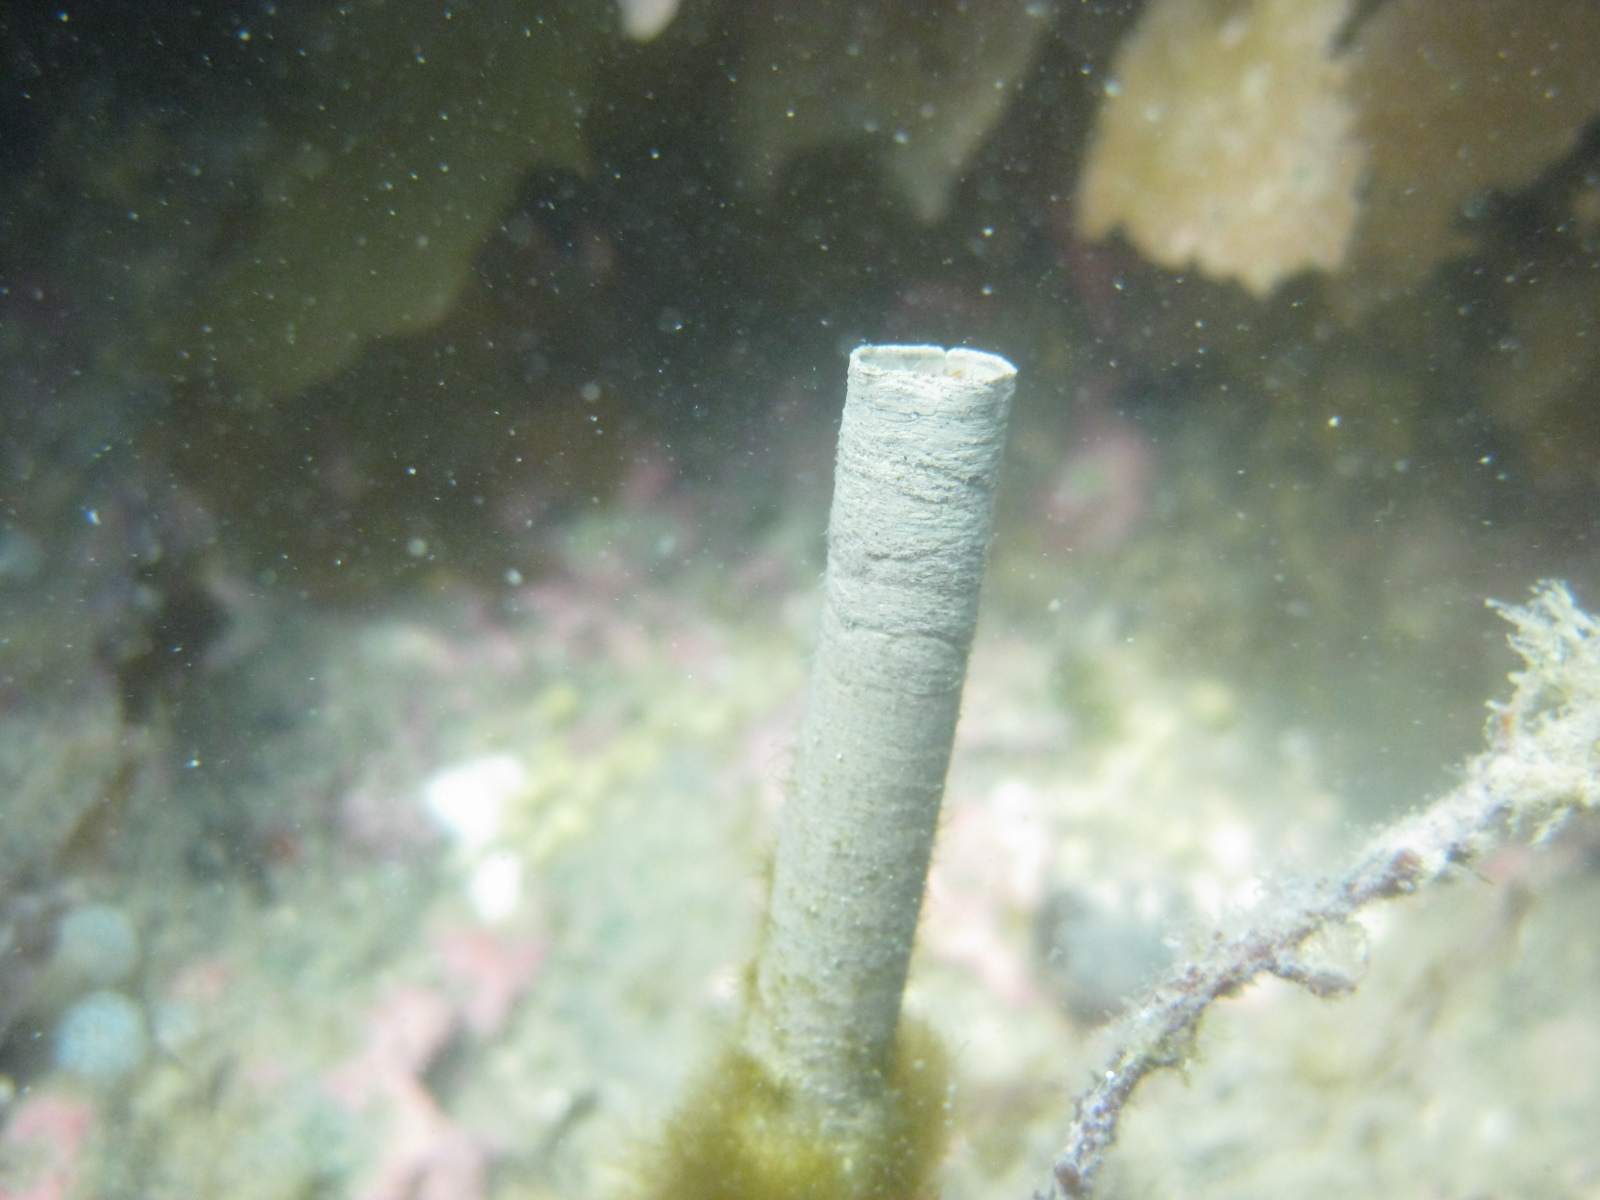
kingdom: Animalia
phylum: Annelida
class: Polychaeta
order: Sabellida
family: Sabellidae
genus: Sabella
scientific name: Sabella spallanzanii
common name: Feather duster worm
